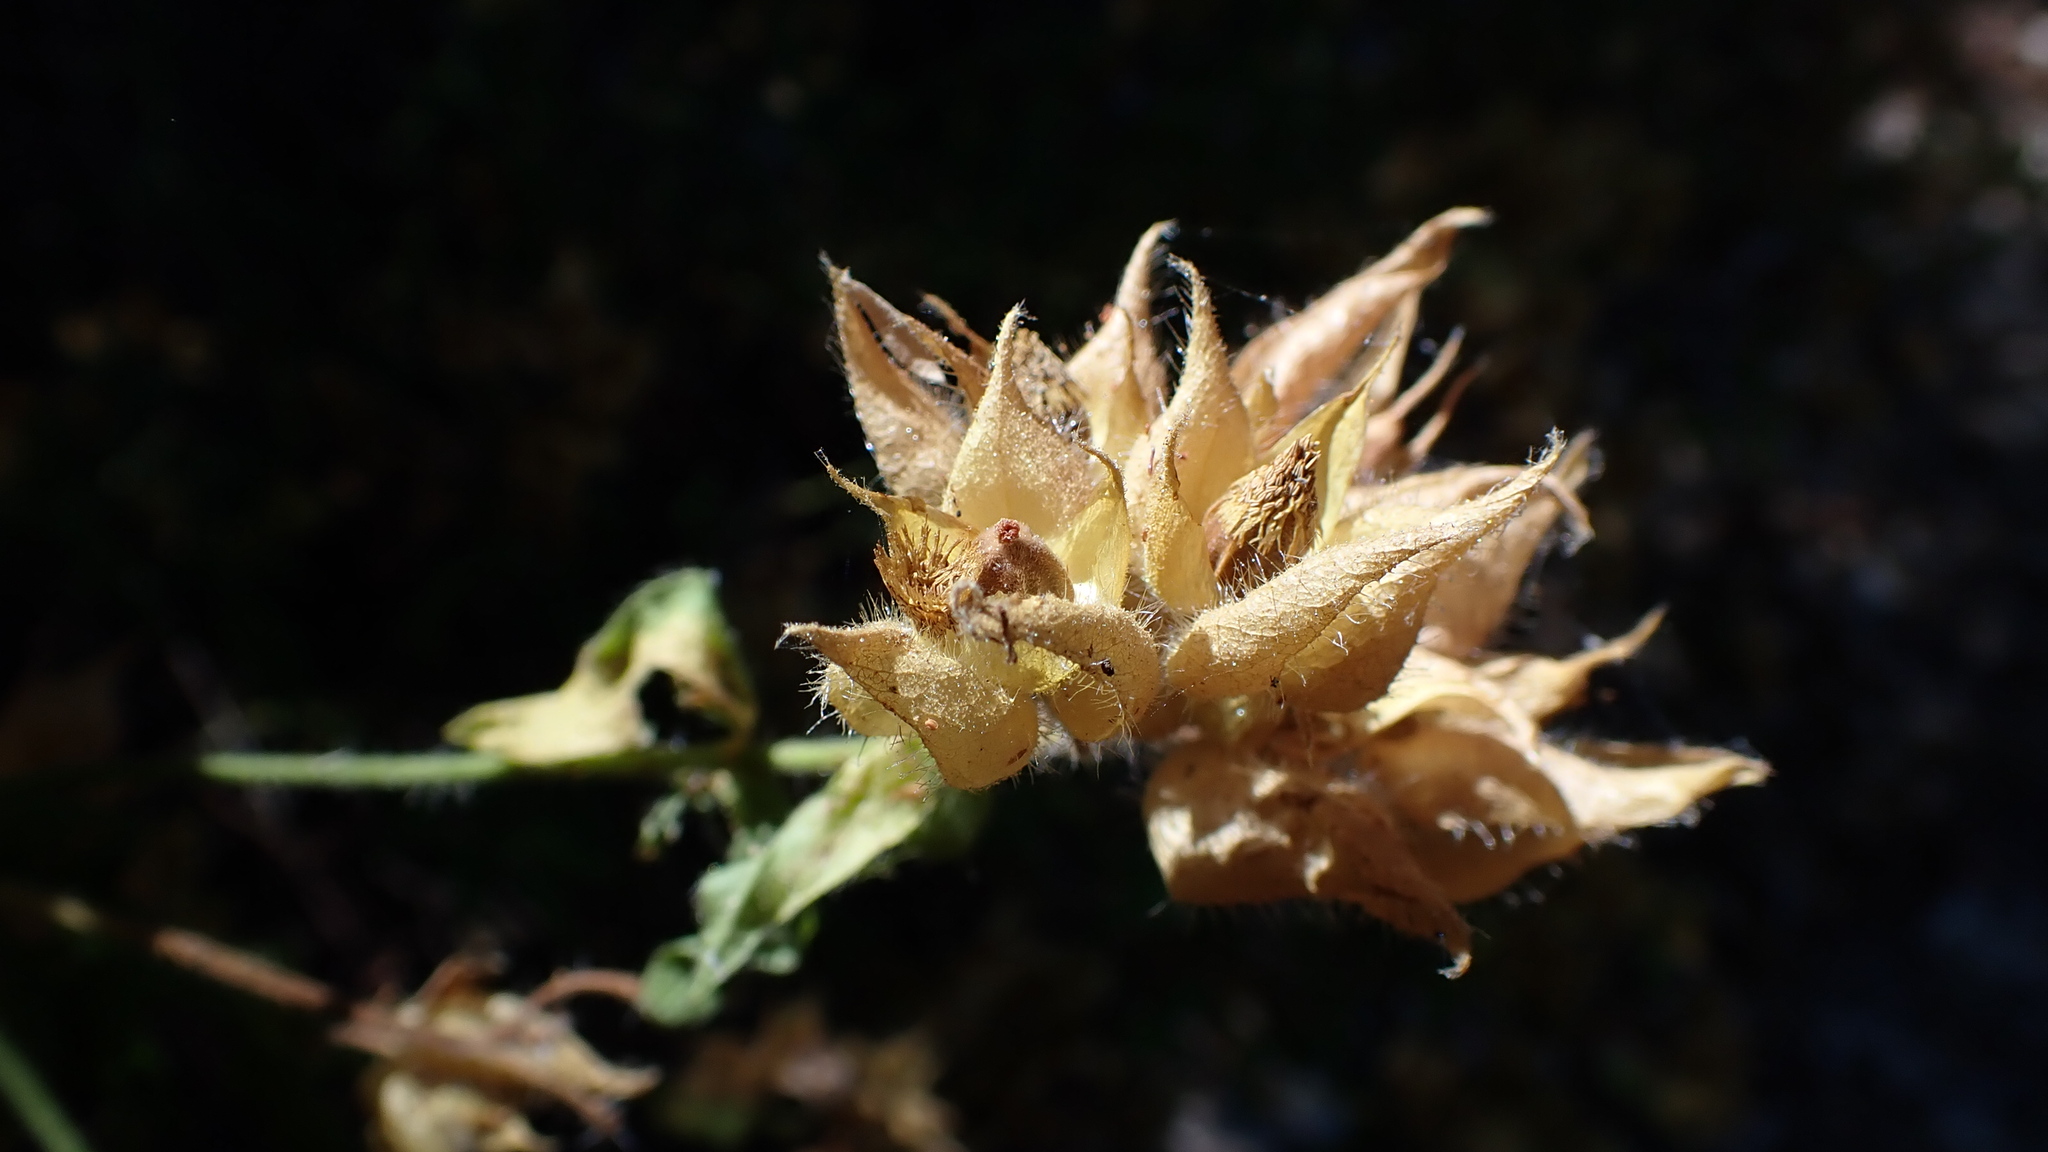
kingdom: Plantae
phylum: Tracheophyta
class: Magnoliopsida
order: Malvales
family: Cistaceae
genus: Cistus
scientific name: Cistus inflatus
